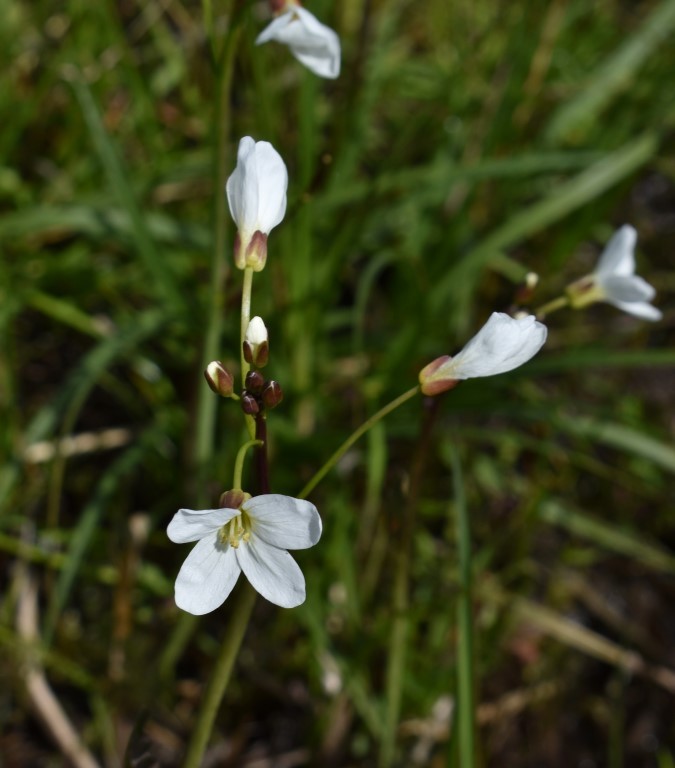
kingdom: Plantae
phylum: Tracheophyta
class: Magnoliopsida
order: Brassicales
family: Brassicaceae
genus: Cardamine
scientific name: Cardamine penduliflora
